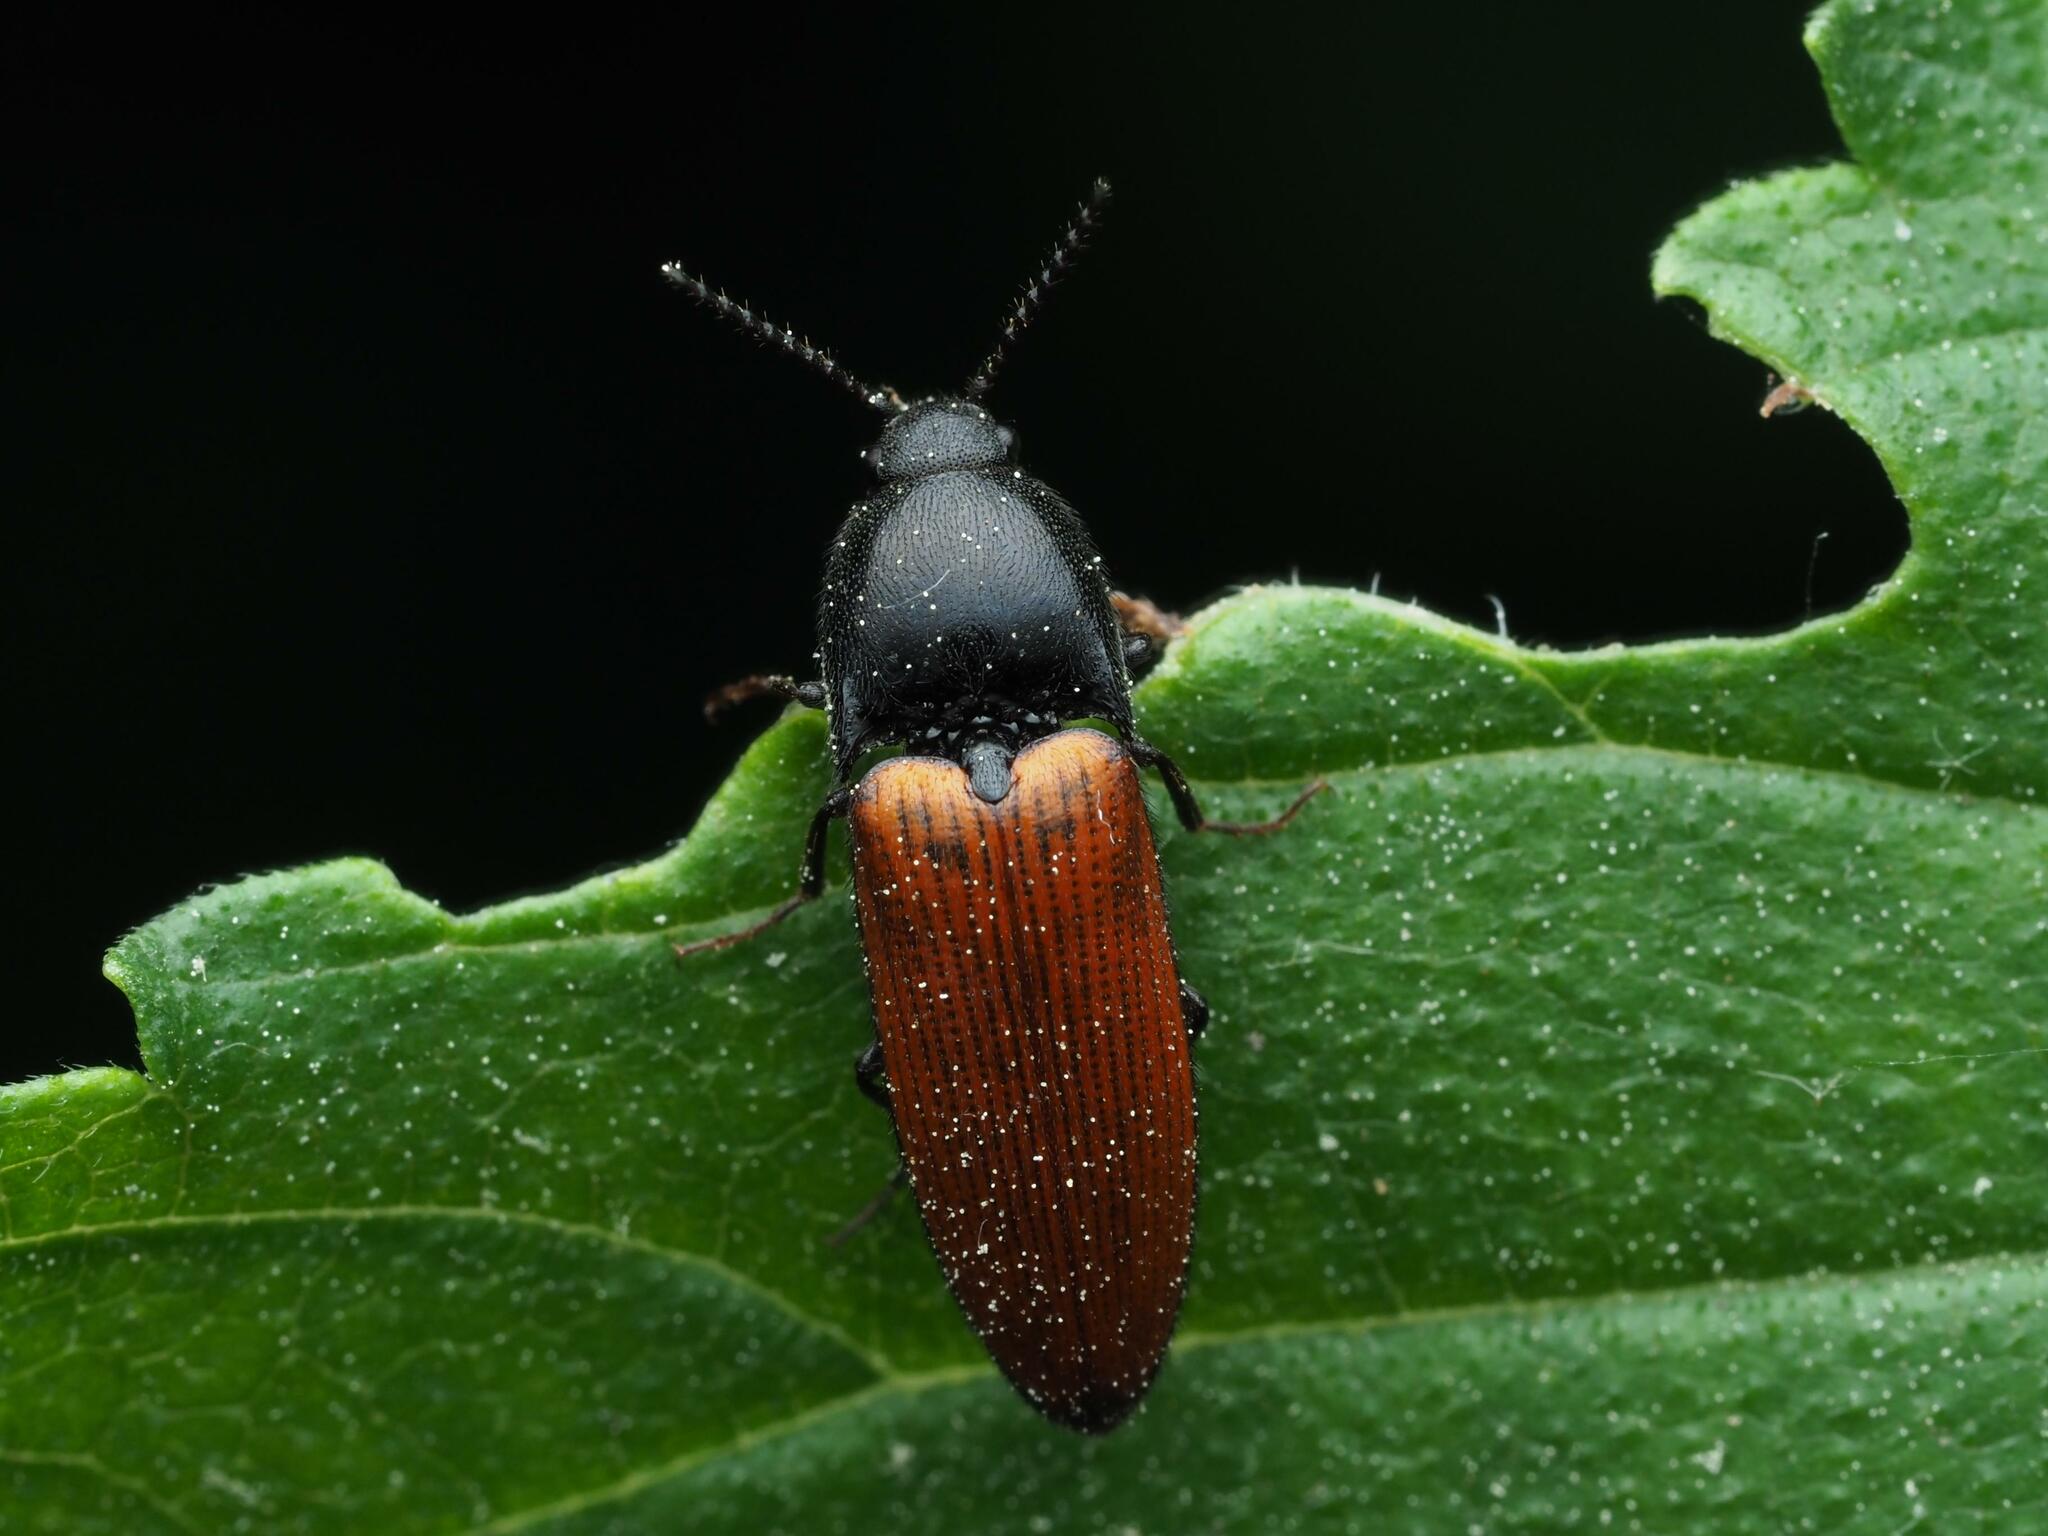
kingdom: Animalia
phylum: Arthropoda
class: Insecta
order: Coleoptera
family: Elateridae
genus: Ampedus
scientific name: Ampedus sanguineus
